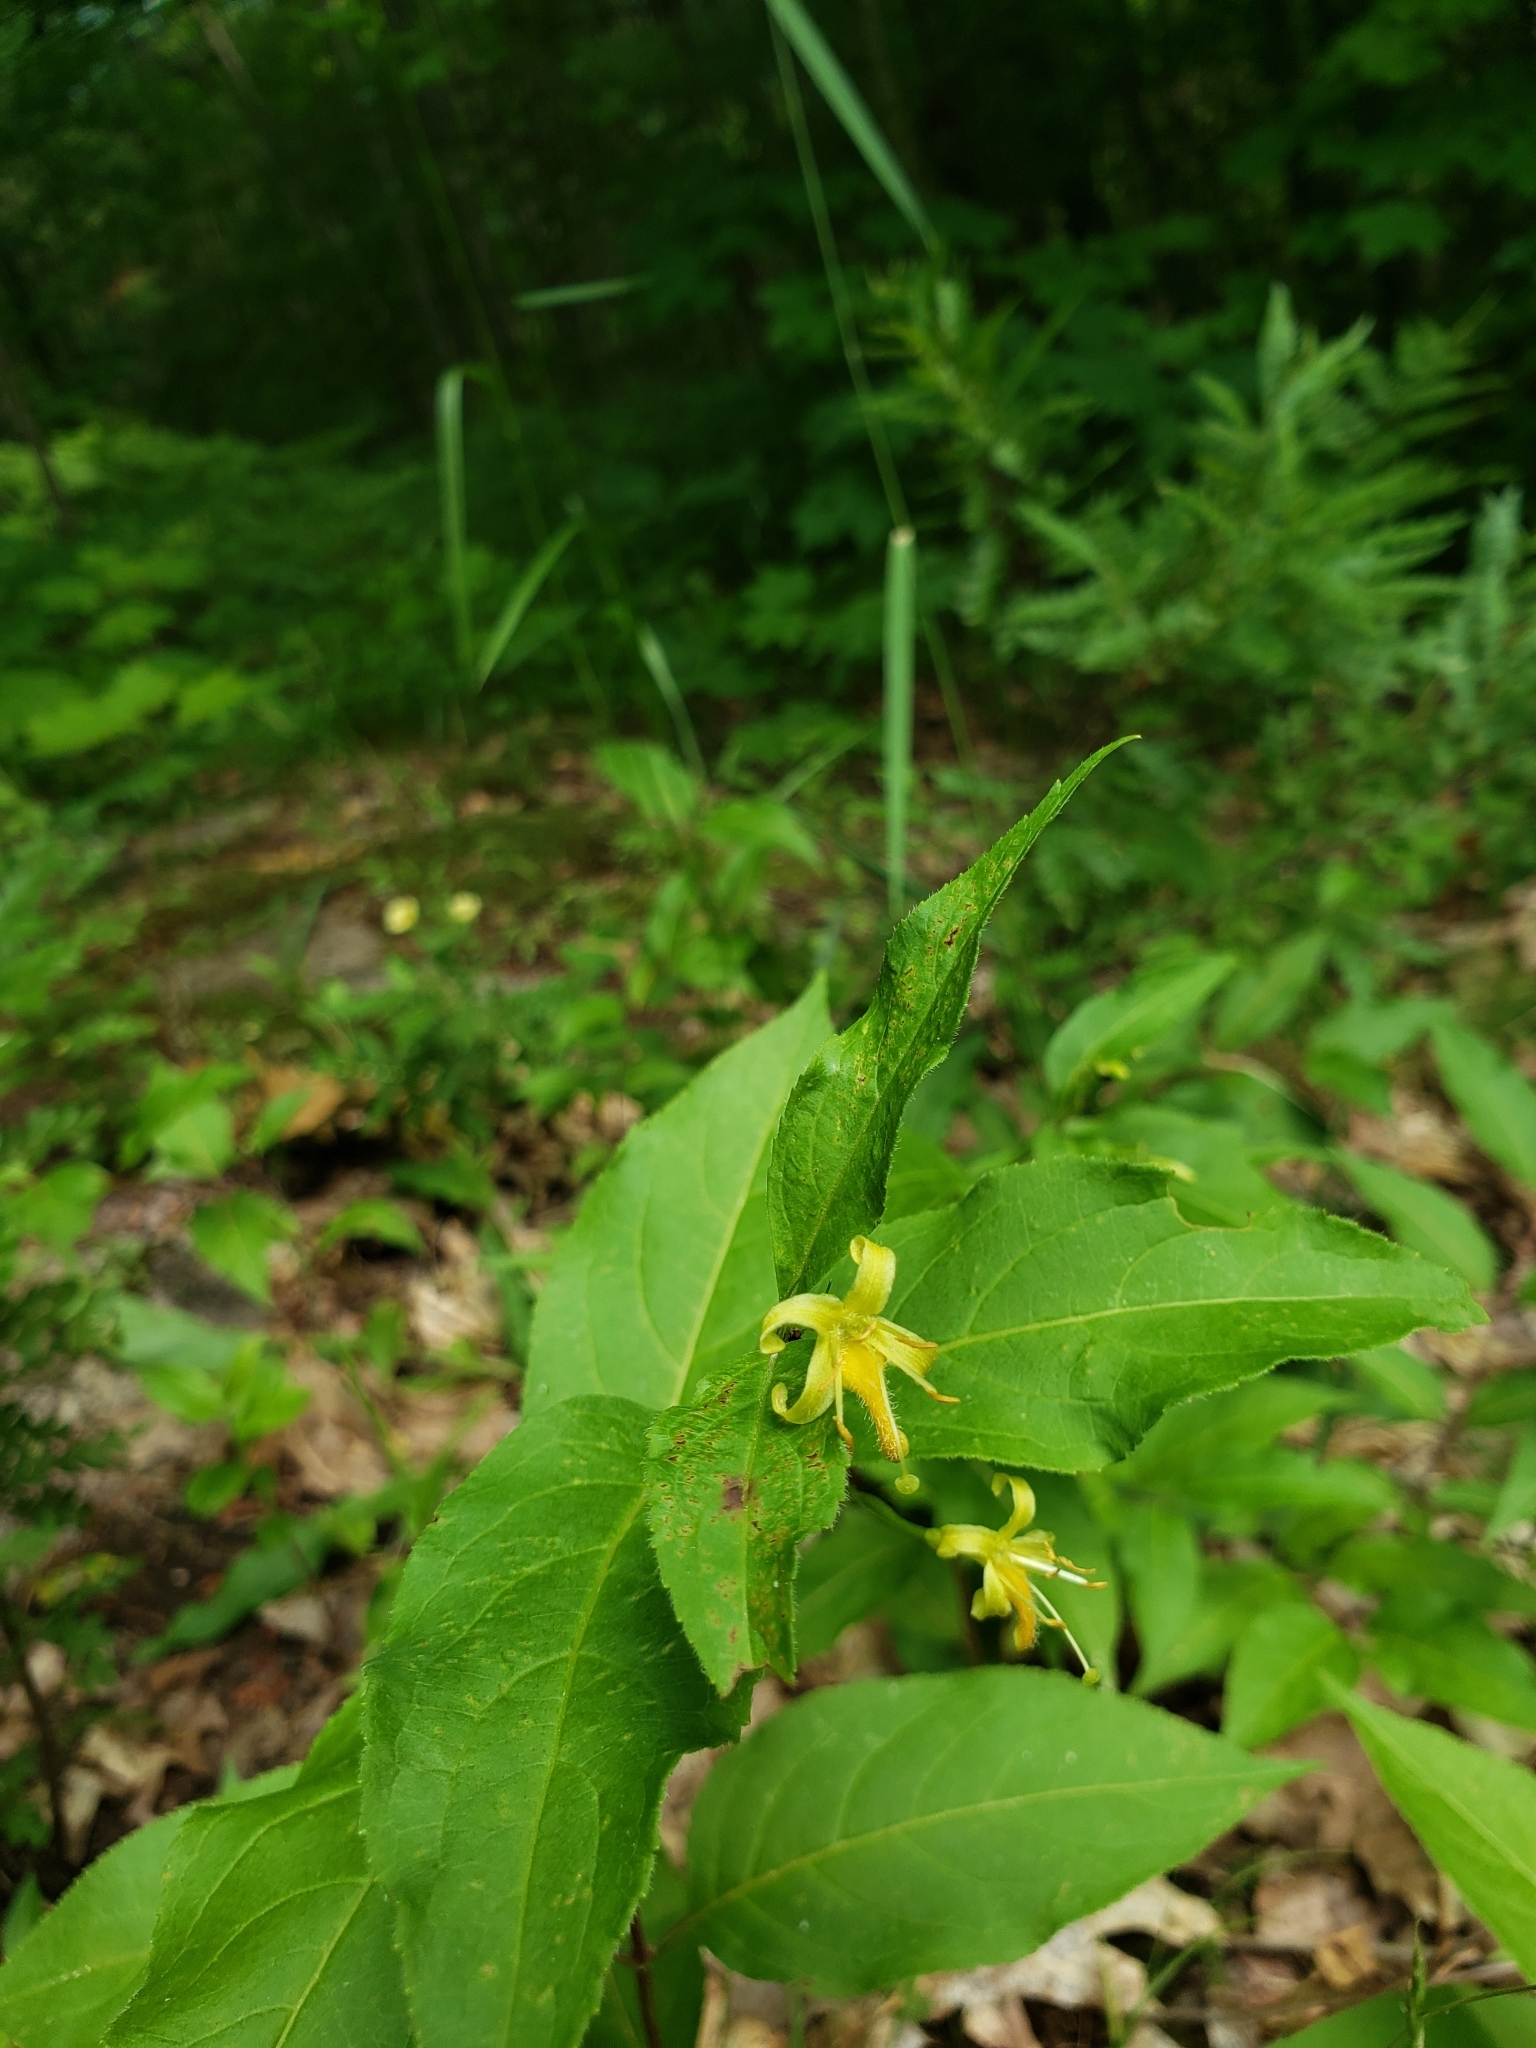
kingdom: Plantae
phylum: Tracheophyta
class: Magnoliopsida
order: Dipsacales
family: Caprifoliaceae
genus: Diervilla
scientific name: Diervilla lonicera
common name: Bush-honeysuckle
